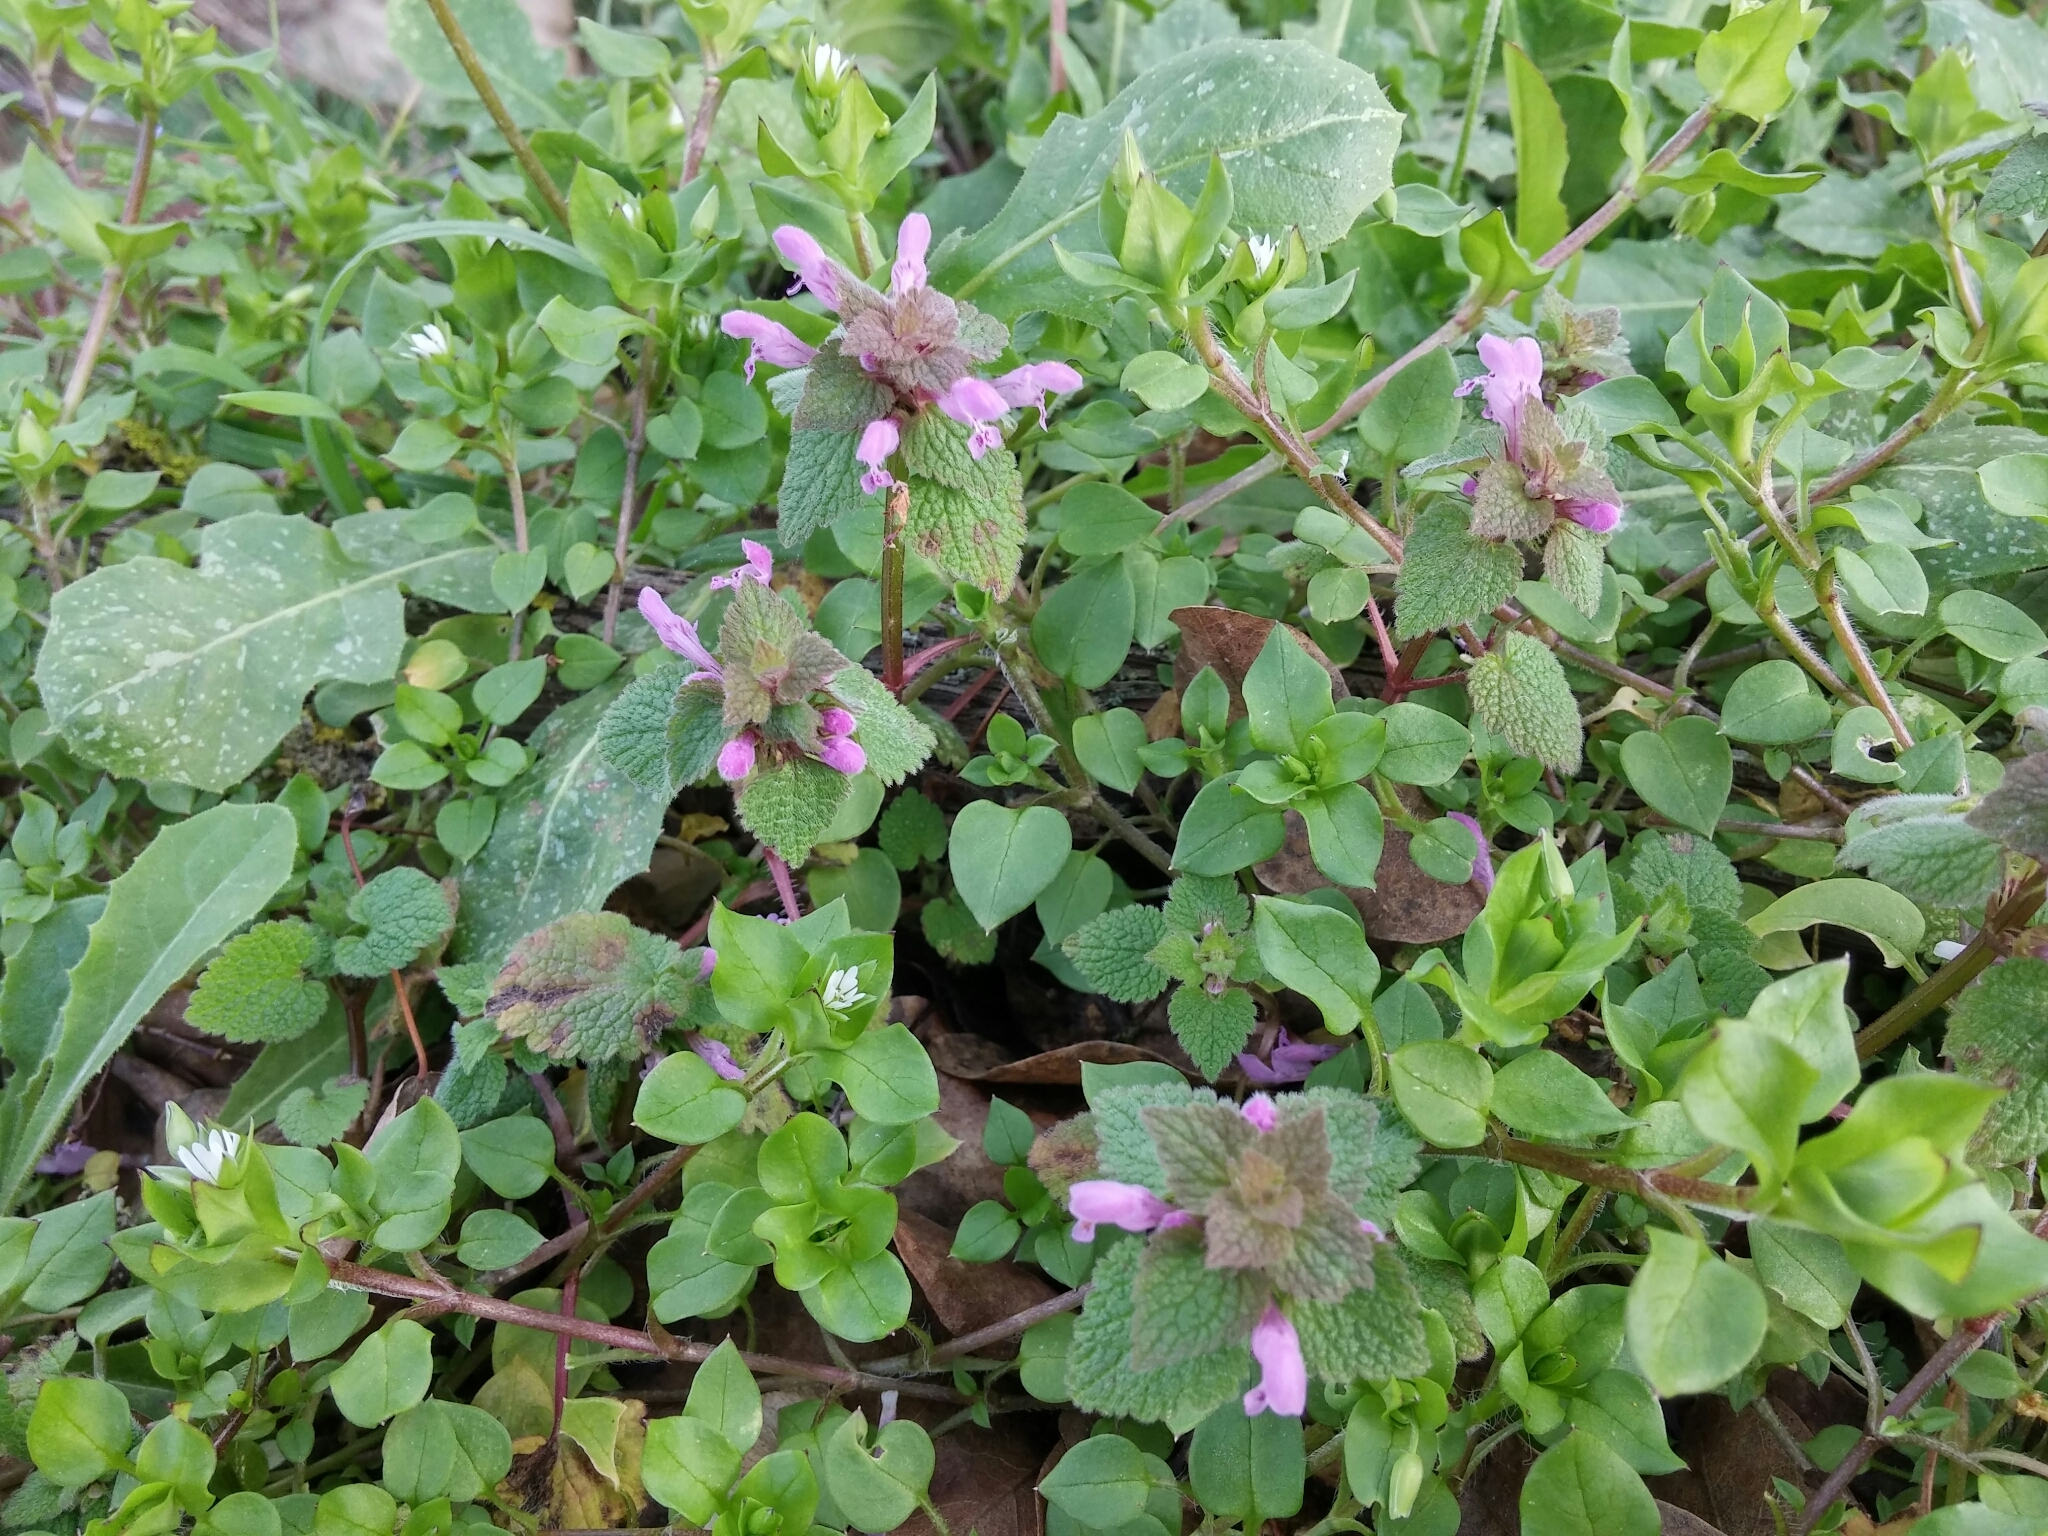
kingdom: Plantae
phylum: Tracheophyta
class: Magnoliopsida
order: Lamiales
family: Lamiaceae
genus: Lamium
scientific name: Lamium purpureum
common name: Red dead-nettle
